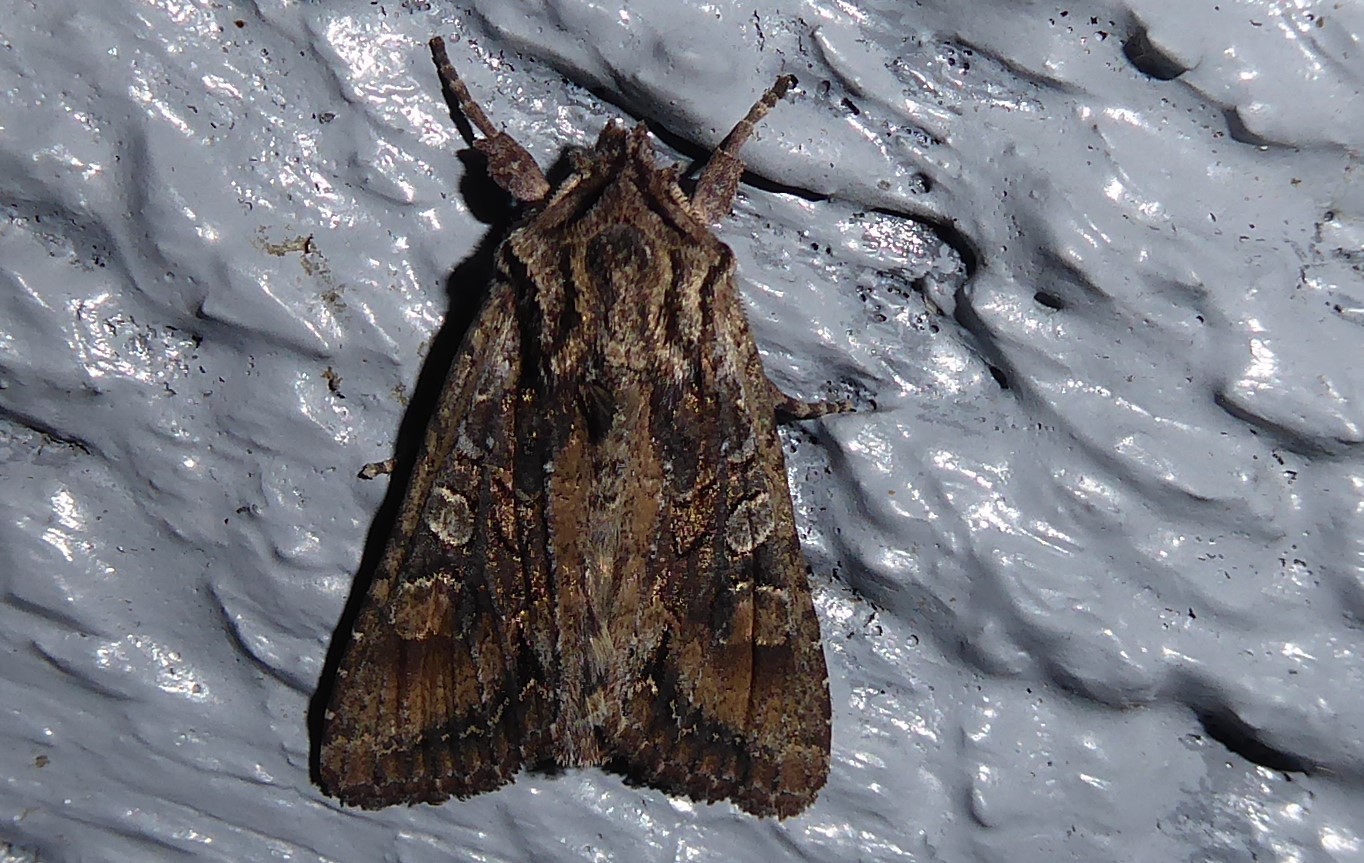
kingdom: Animalia
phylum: Arthropoda
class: Insecta
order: Lepidoptera
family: Noctuidae
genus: Ichneutica
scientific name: Ichneutica mutans
